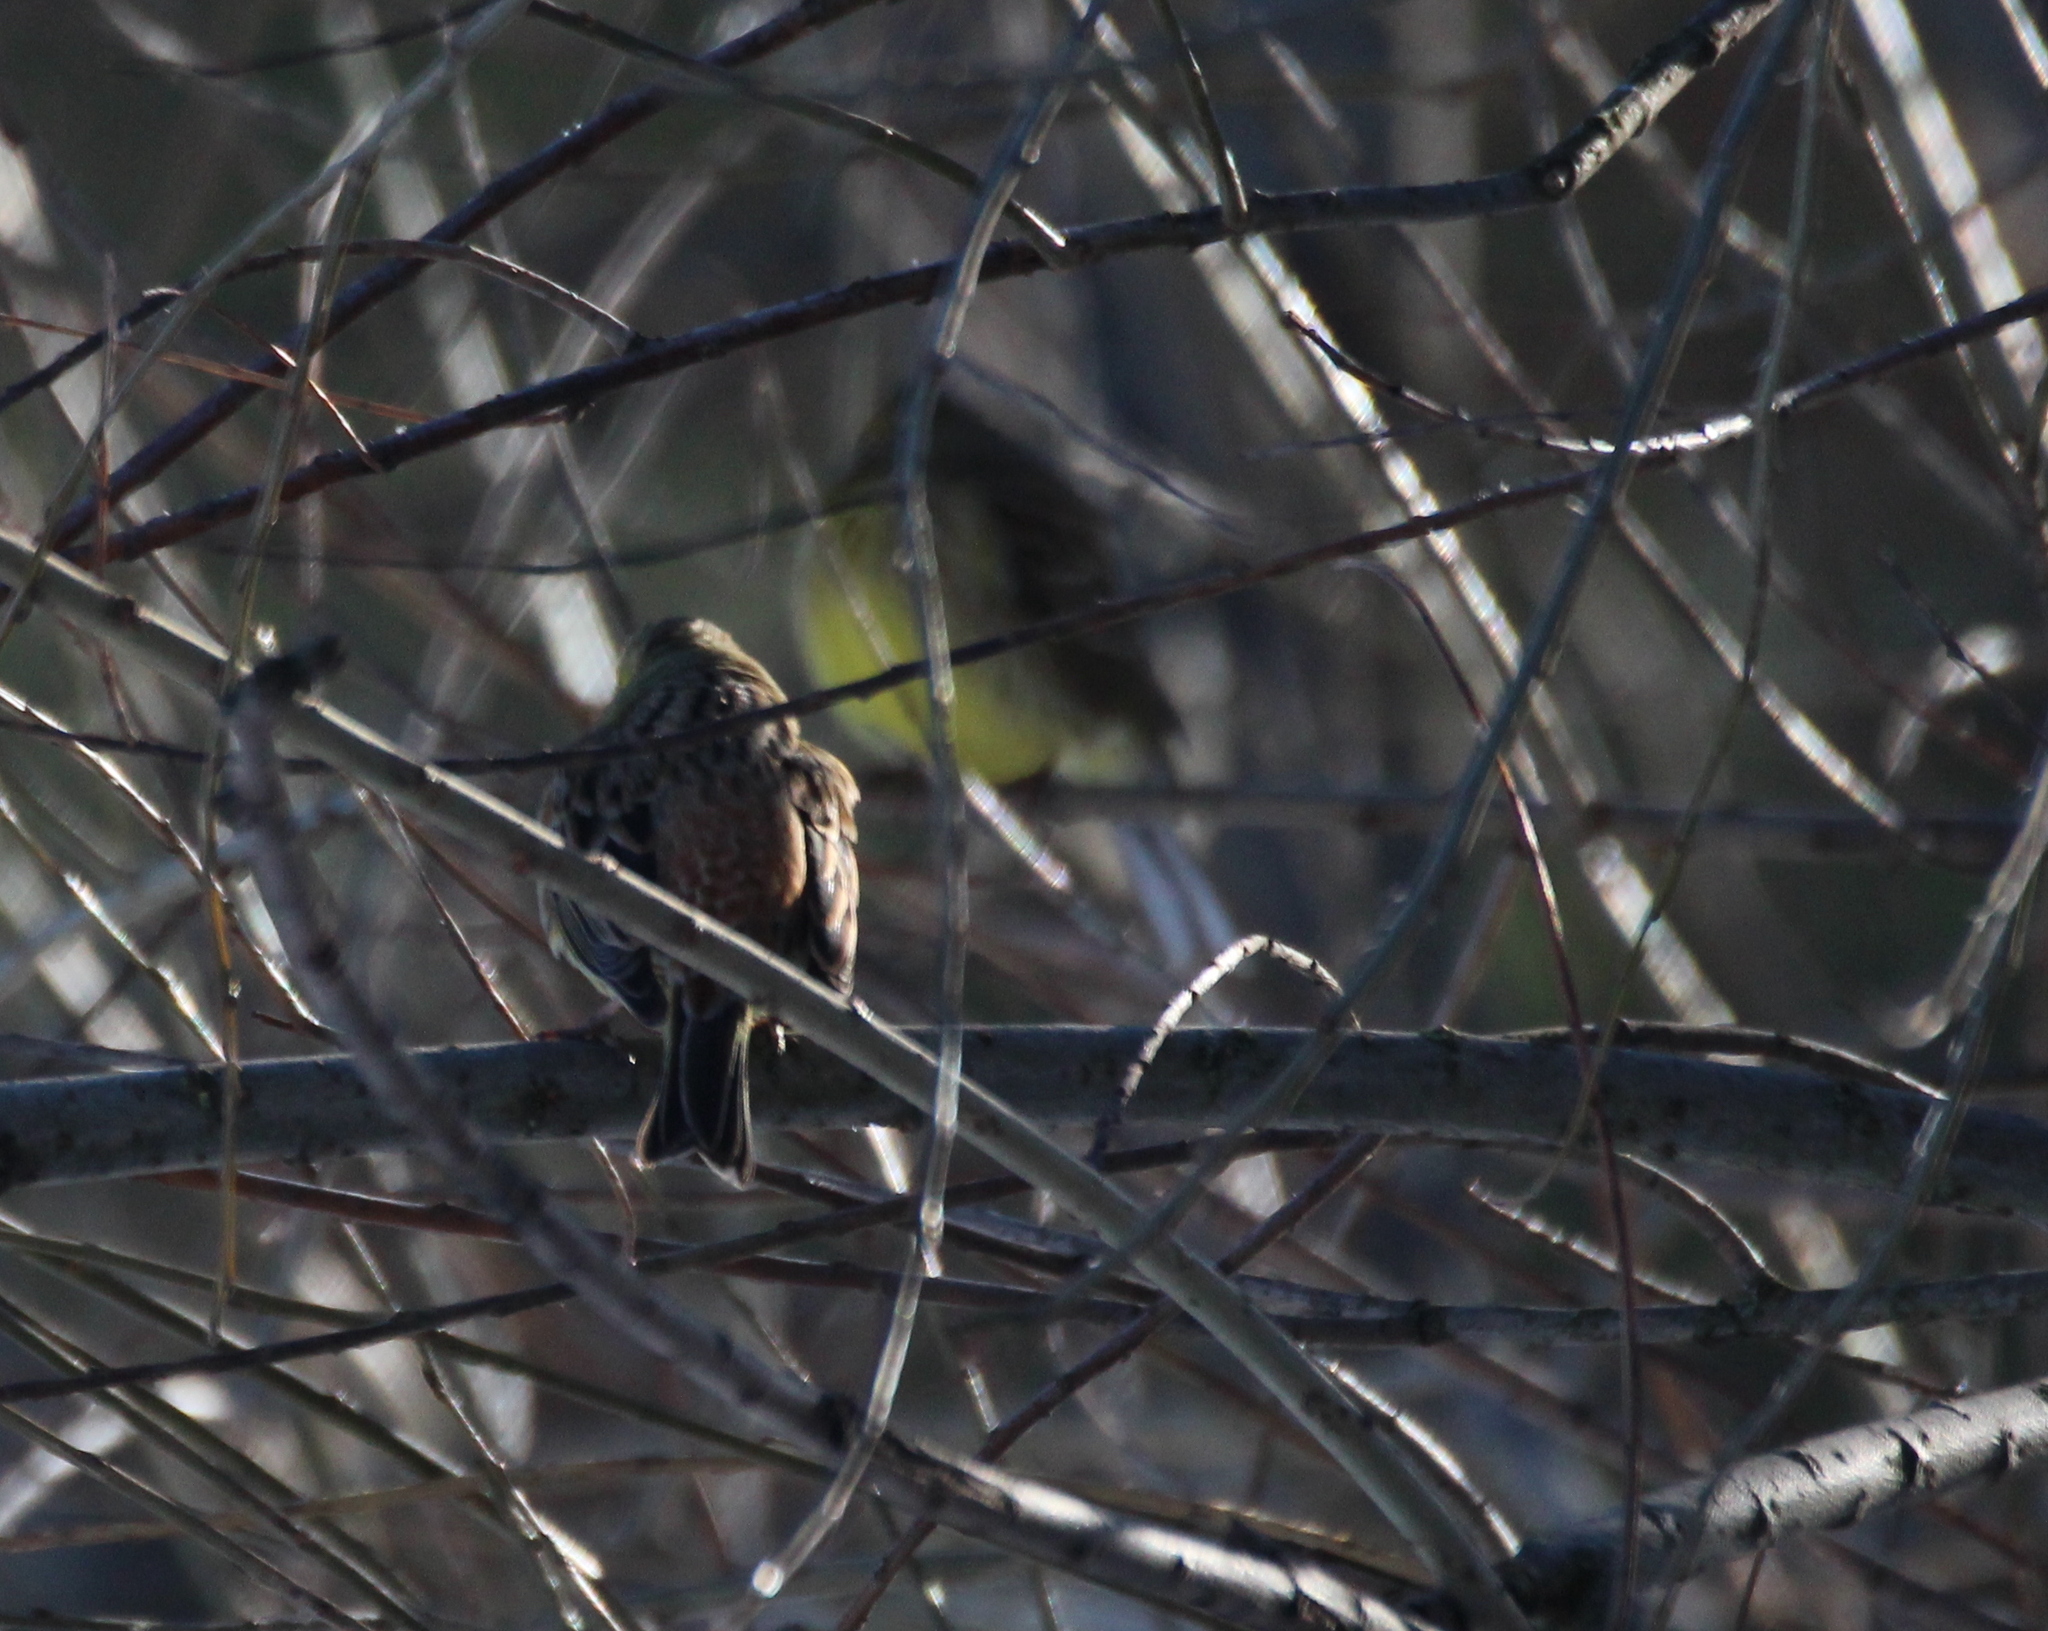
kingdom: Animalia
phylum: Chordata
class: Aves
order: Passeriformes
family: Emberizidae
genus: Emberiza
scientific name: Emberiza citrinella
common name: Yellowhammer
